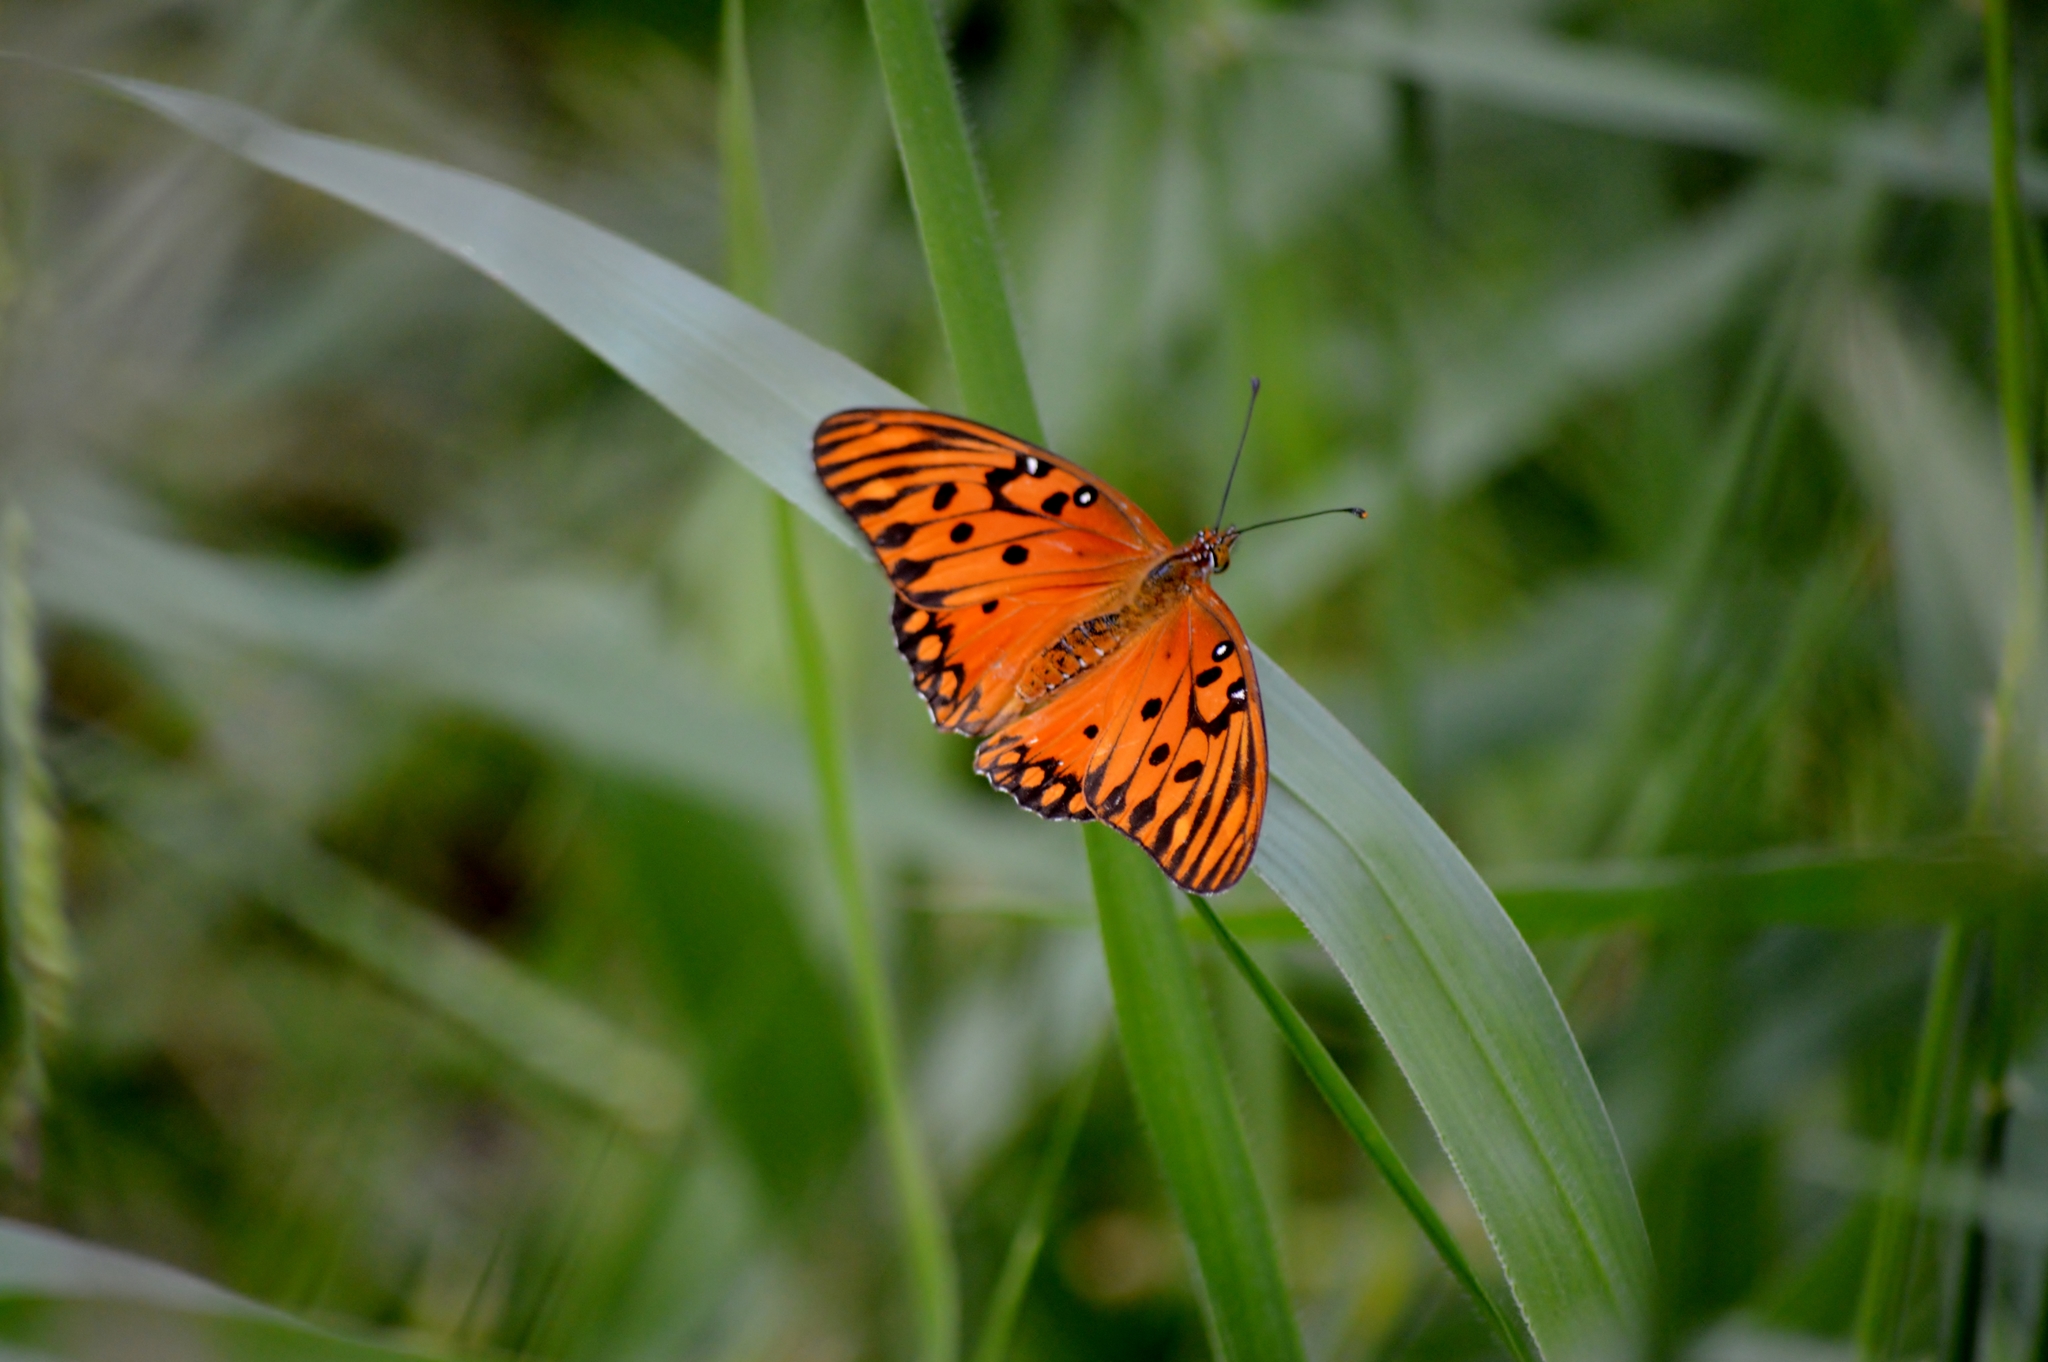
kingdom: Animalia
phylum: Arthropoda
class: Insecta
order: Lepidoptera
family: Nymphalidae
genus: Dione
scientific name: Dione vanillae
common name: Gulf fritillary
